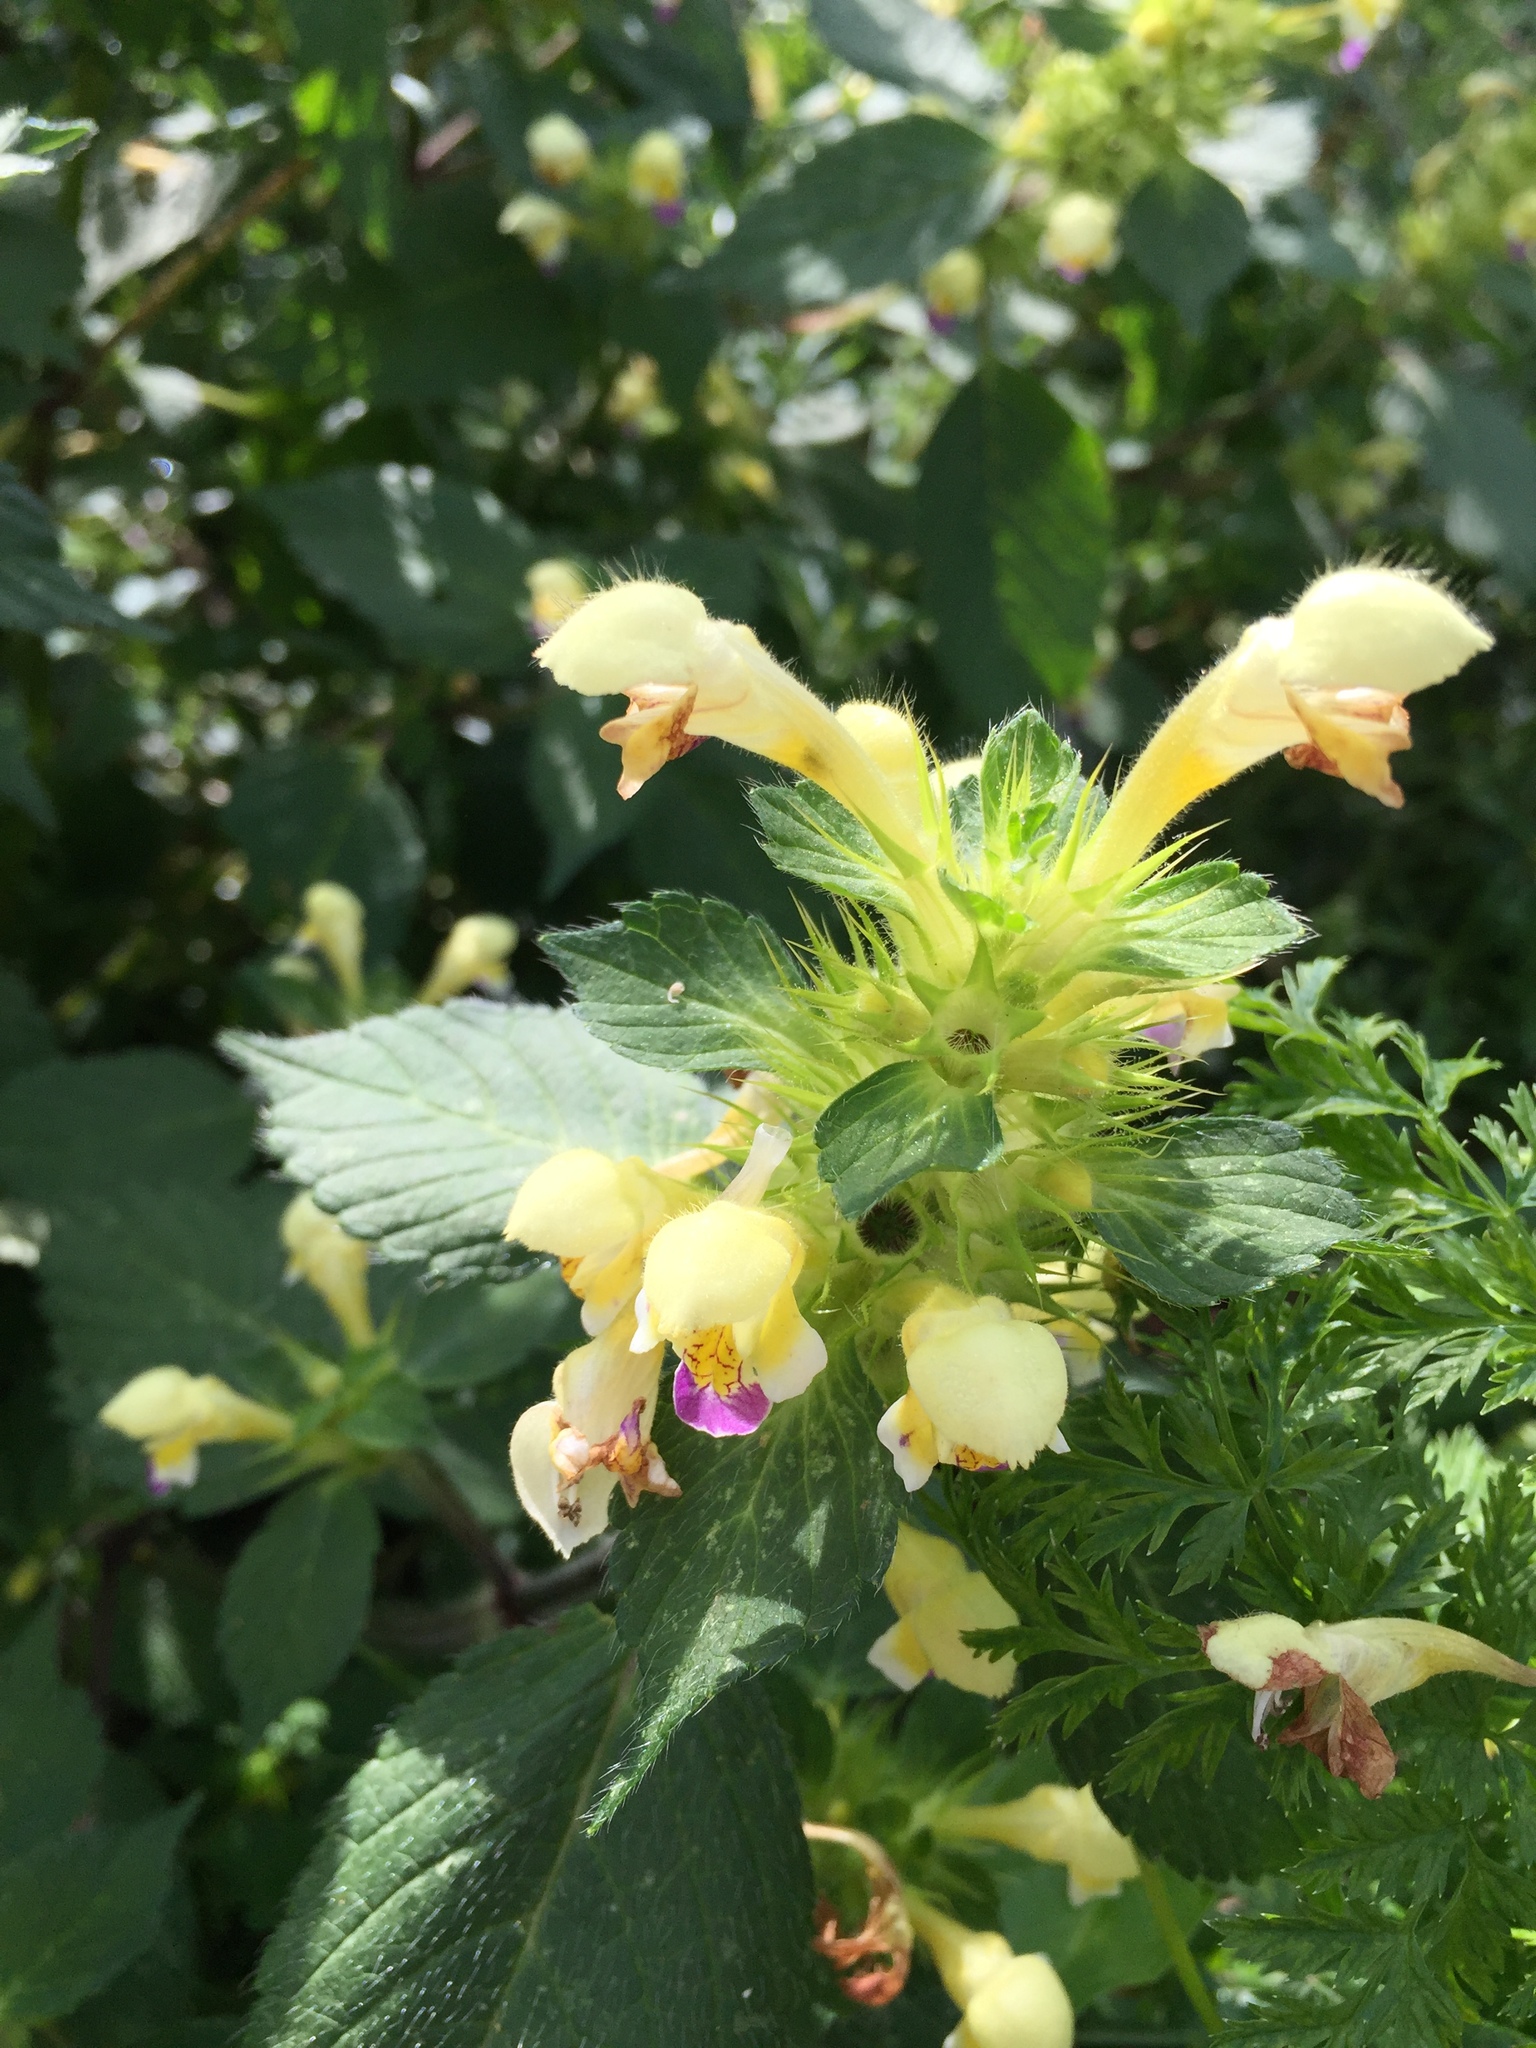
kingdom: Plantae
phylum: Tracheophyta
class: Magnoliopsida
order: Lamiales
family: Lamiaceae
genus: Galeopsis
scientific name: Galeopsis speciosa
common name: Large-flowered hemp-nettle
